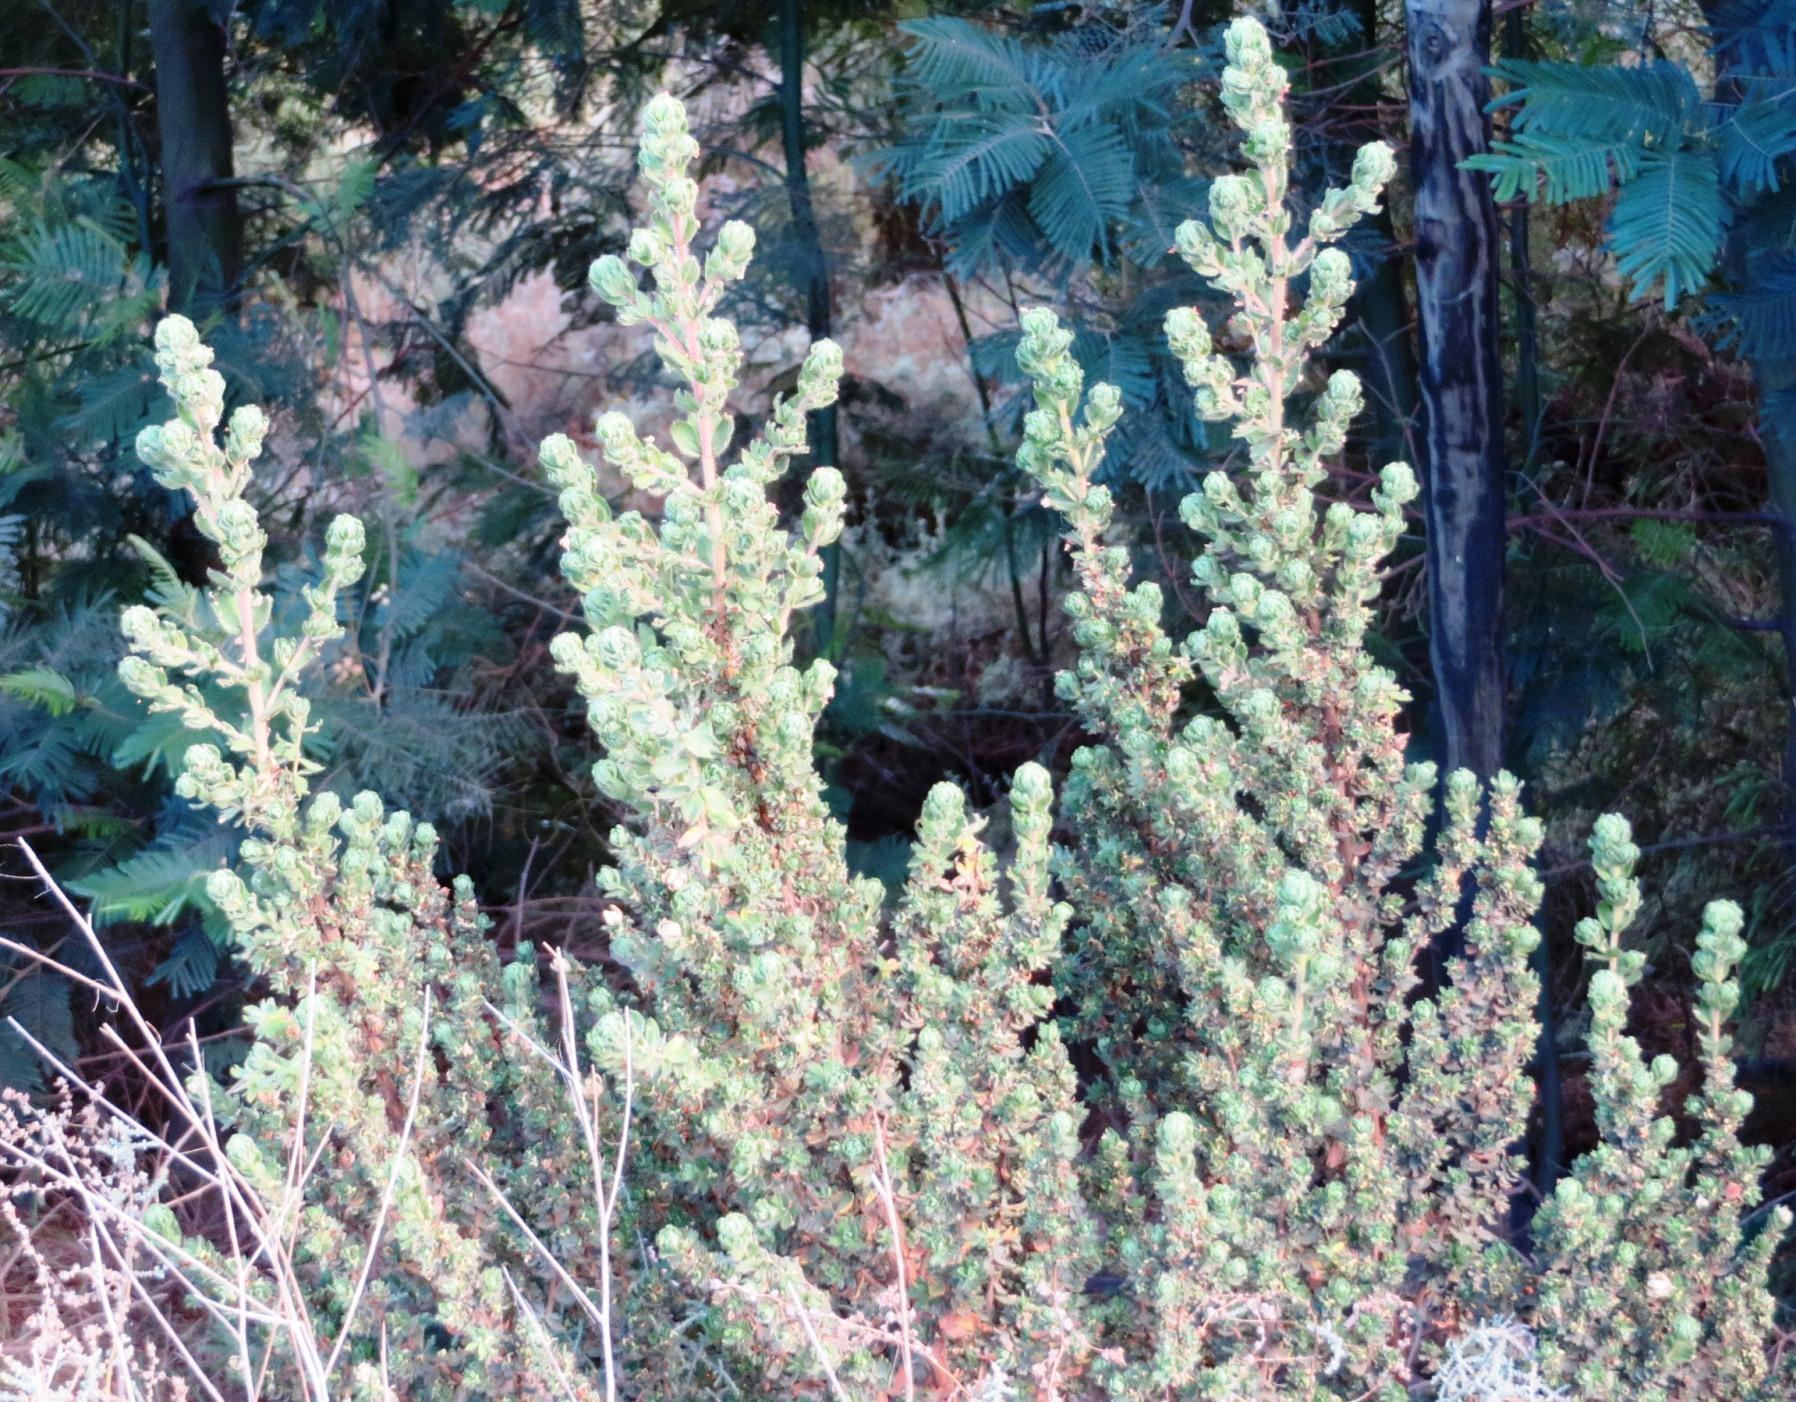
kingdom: Plantae
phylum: Tracheophyta
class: Magnoliopsida
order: Rosales
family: Rosaceae
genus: Cliffortia
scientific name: Cliffortia polygonifolia
